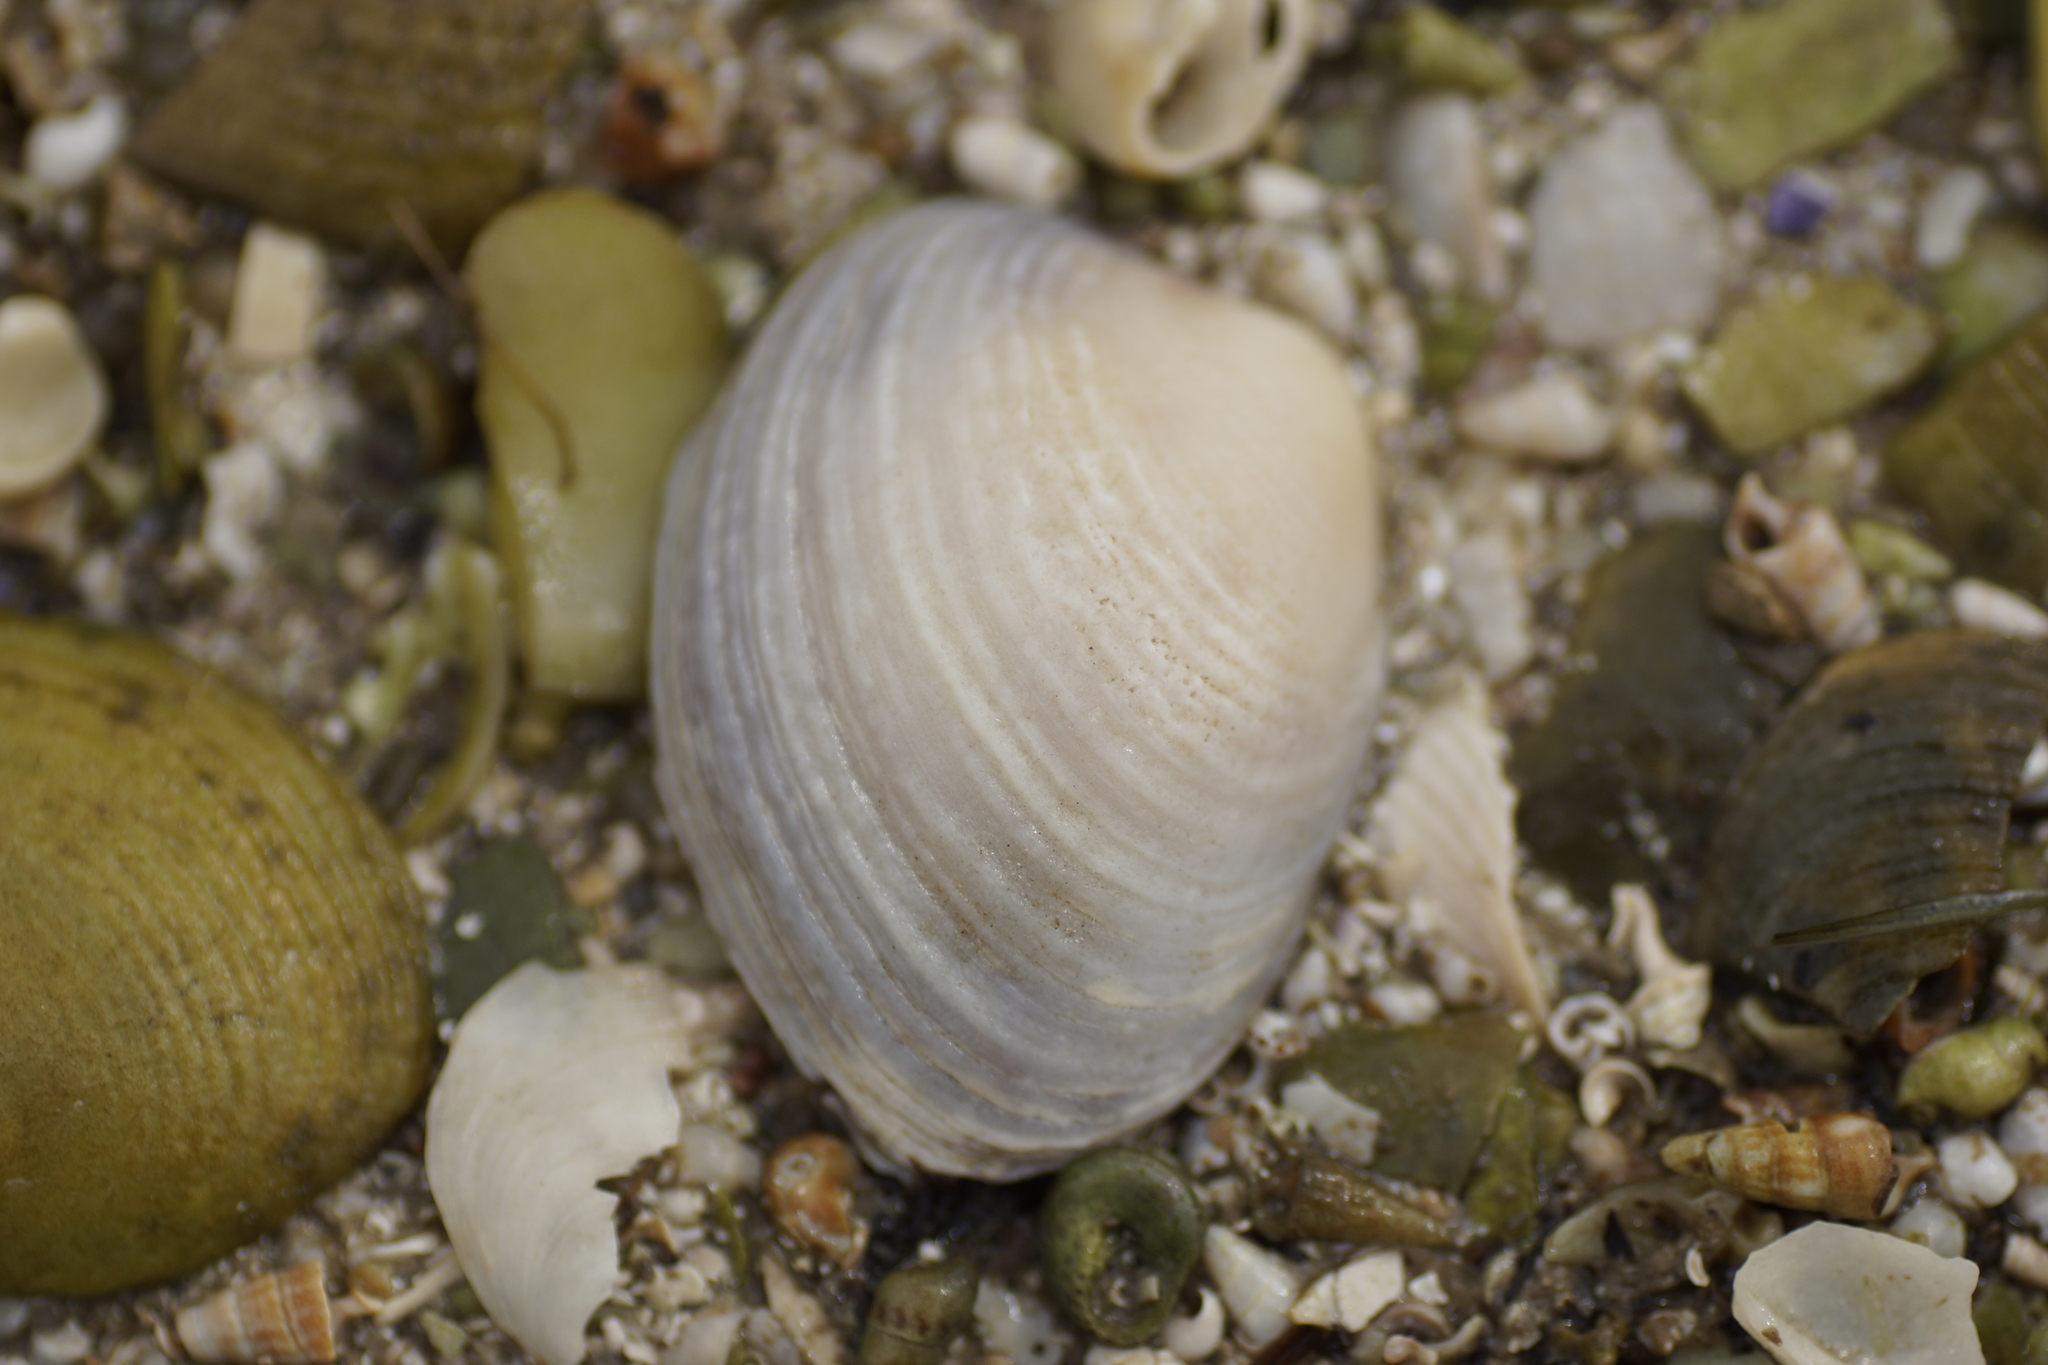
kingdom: Animalia
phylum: Mollusca
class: Bivalvia
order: Venerida
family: Veneridae
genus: Katelysia
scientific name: Katelysia
